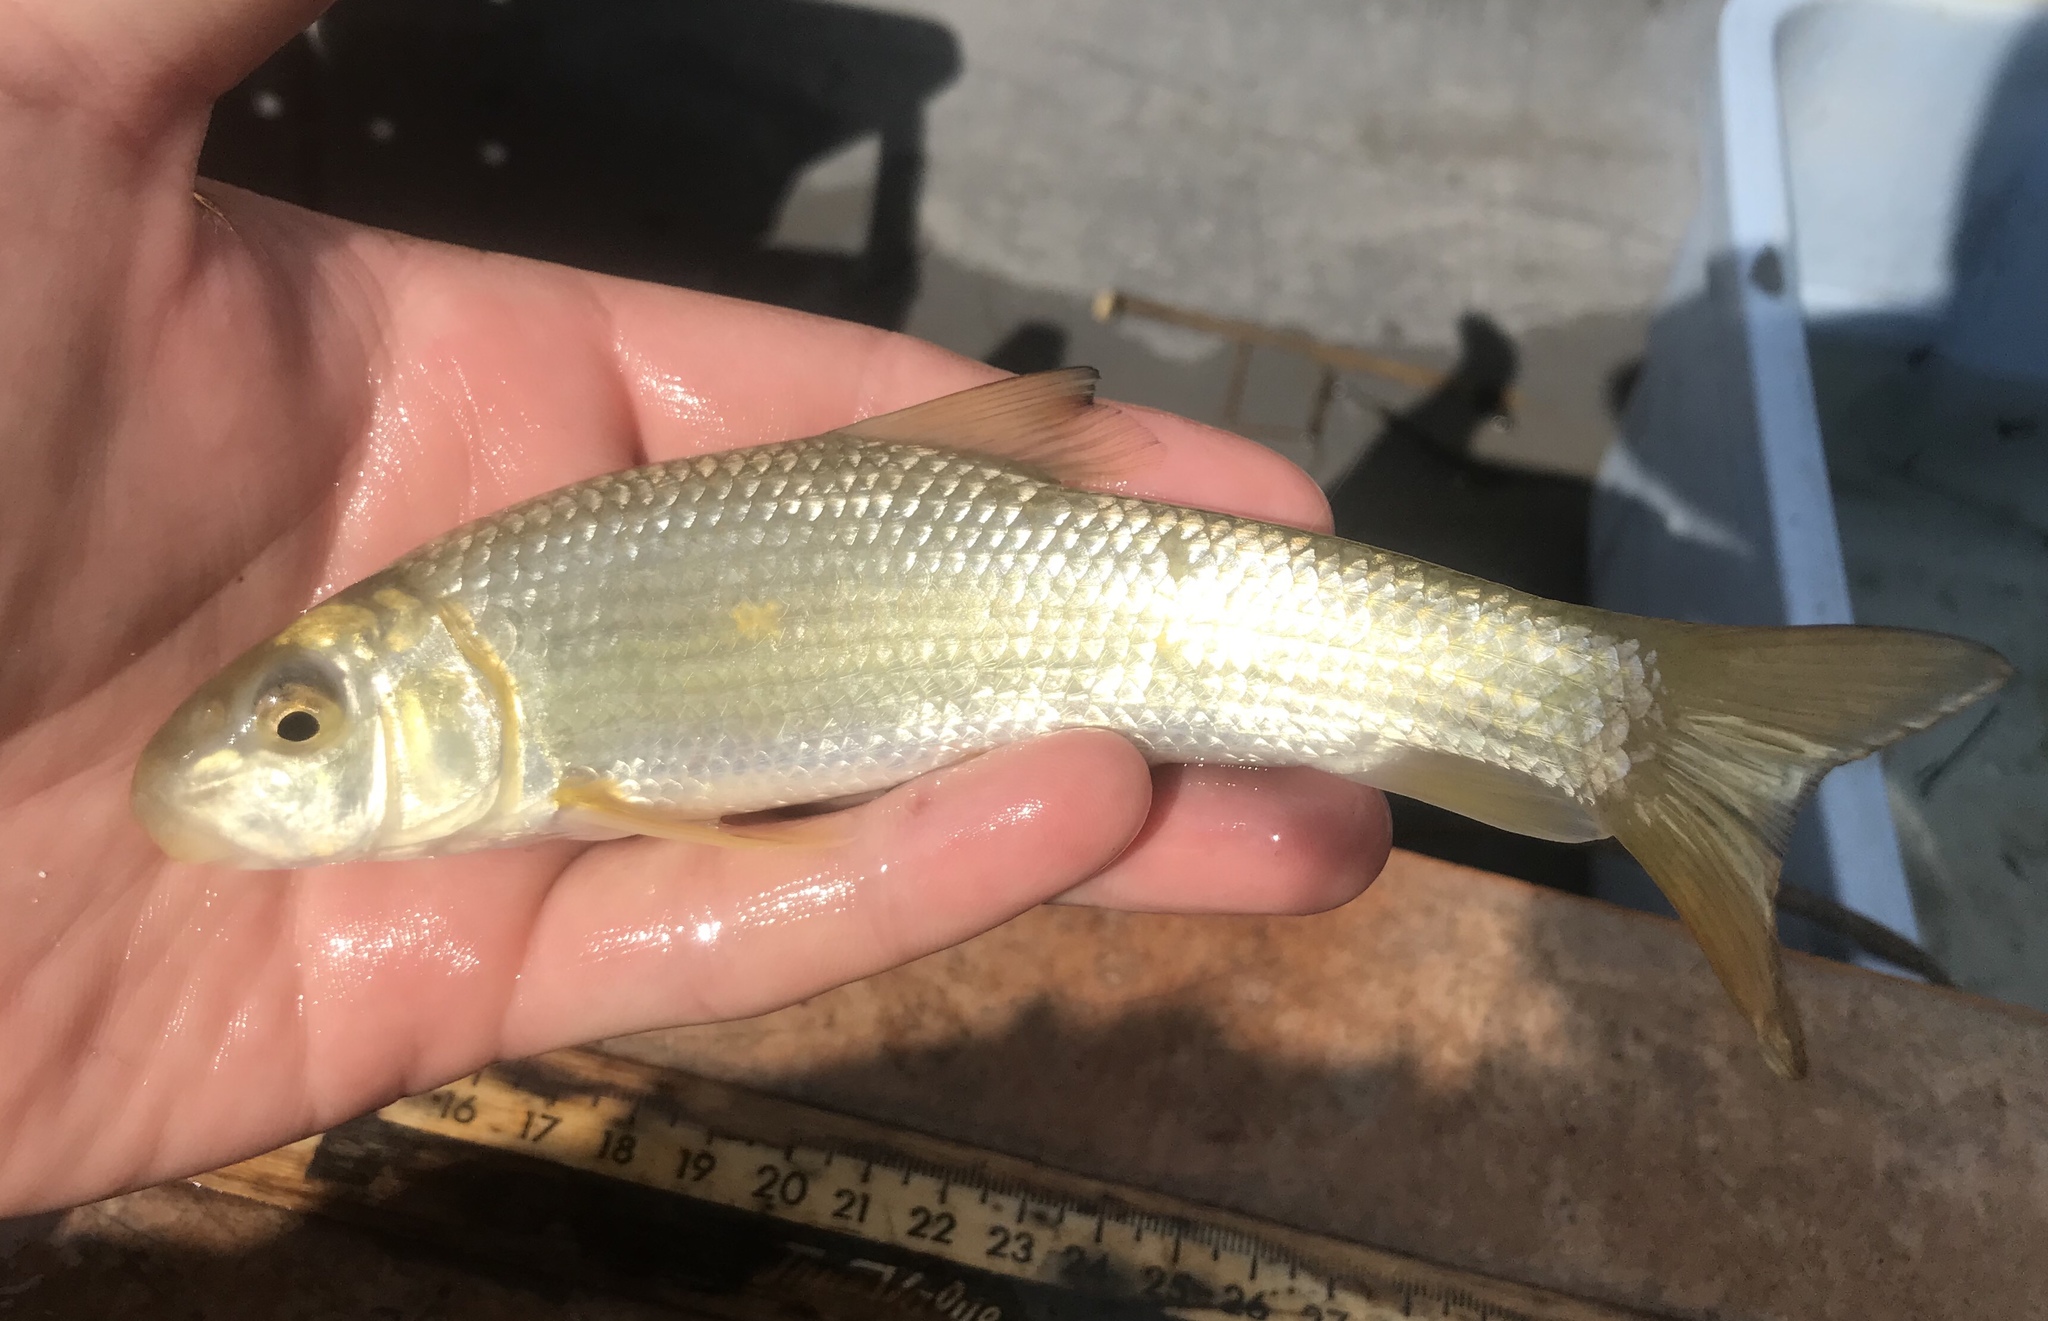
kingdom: Animalia
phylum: Chordata
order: Cypriniformes
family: Catostomidae
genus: Moxostoma
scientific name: Moxostoma congestum
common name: Gray redhorse
